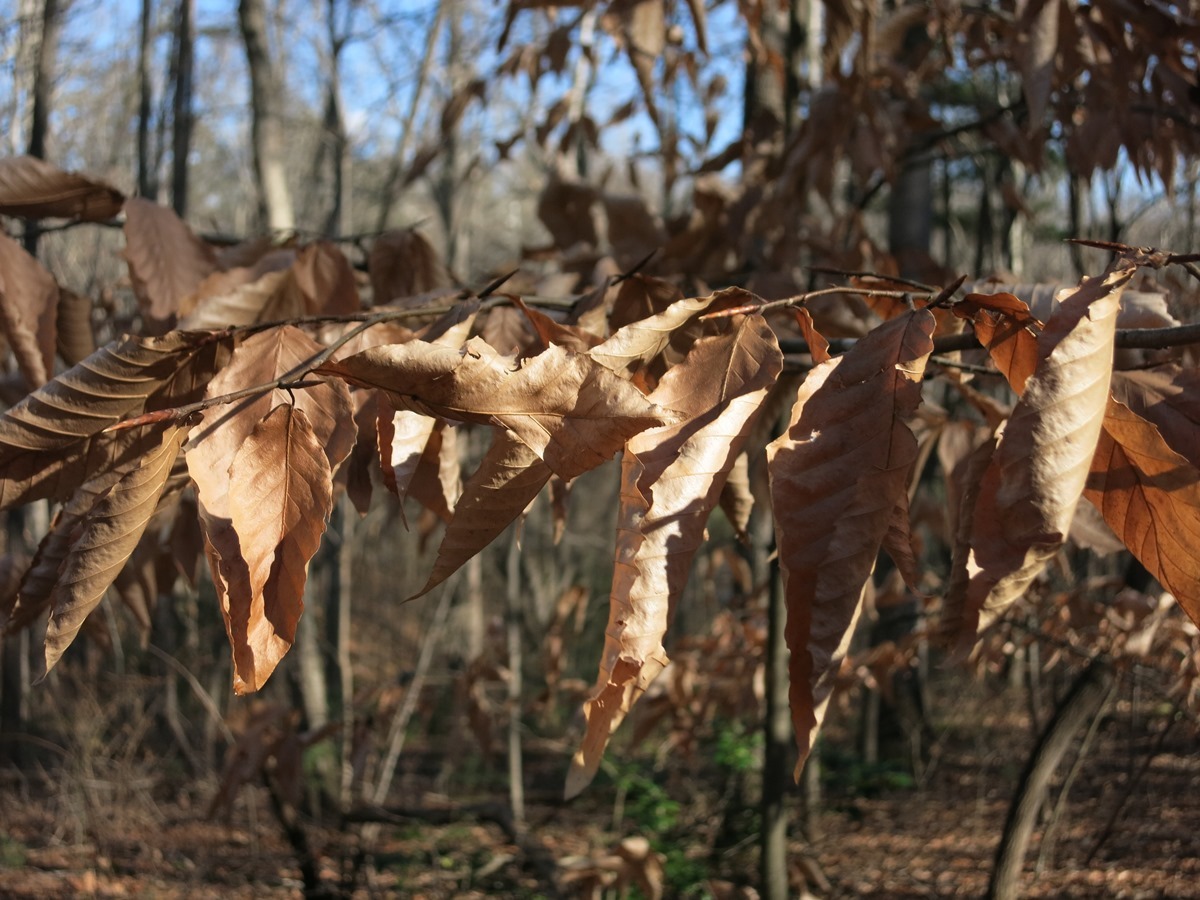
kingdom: Plantae
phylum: Tracheophyta
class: Magnoliopsida
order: Fagales
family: Fagaceae
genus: Fagus
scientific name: Fagus grandifolia
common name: American beech
